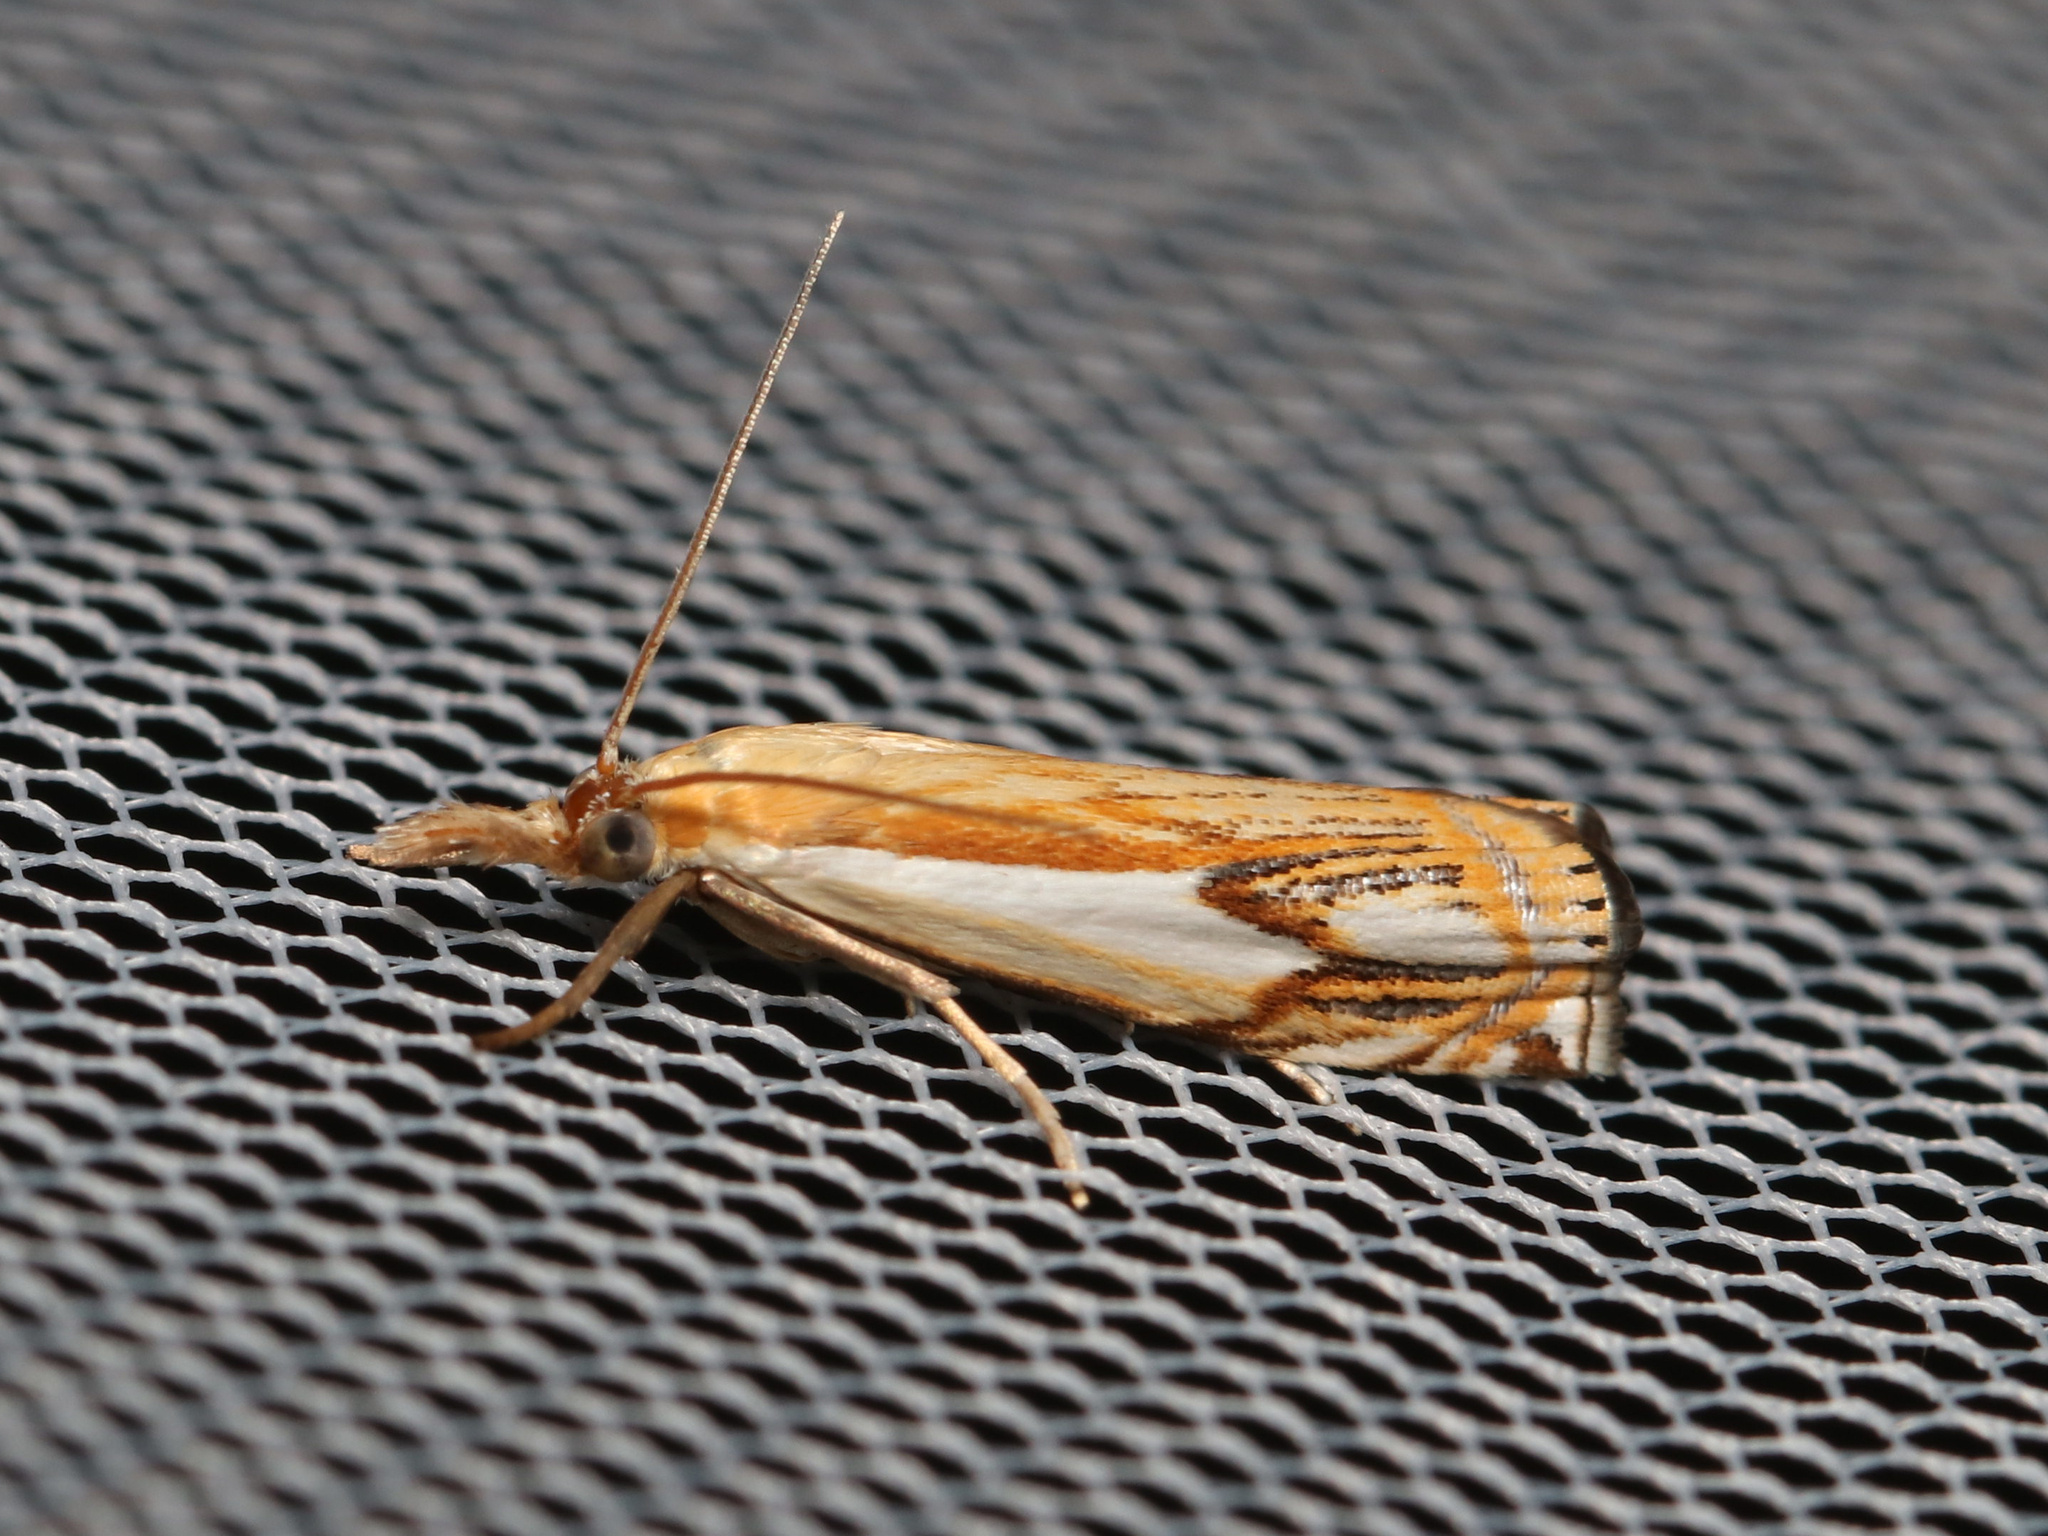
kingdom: Animalia
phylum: Arthropoda
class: Insecta
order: Lepidoptera
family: Crambidae
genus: Crambus
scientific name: Crambus agitatellus
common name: Double-banded grass-veneer
